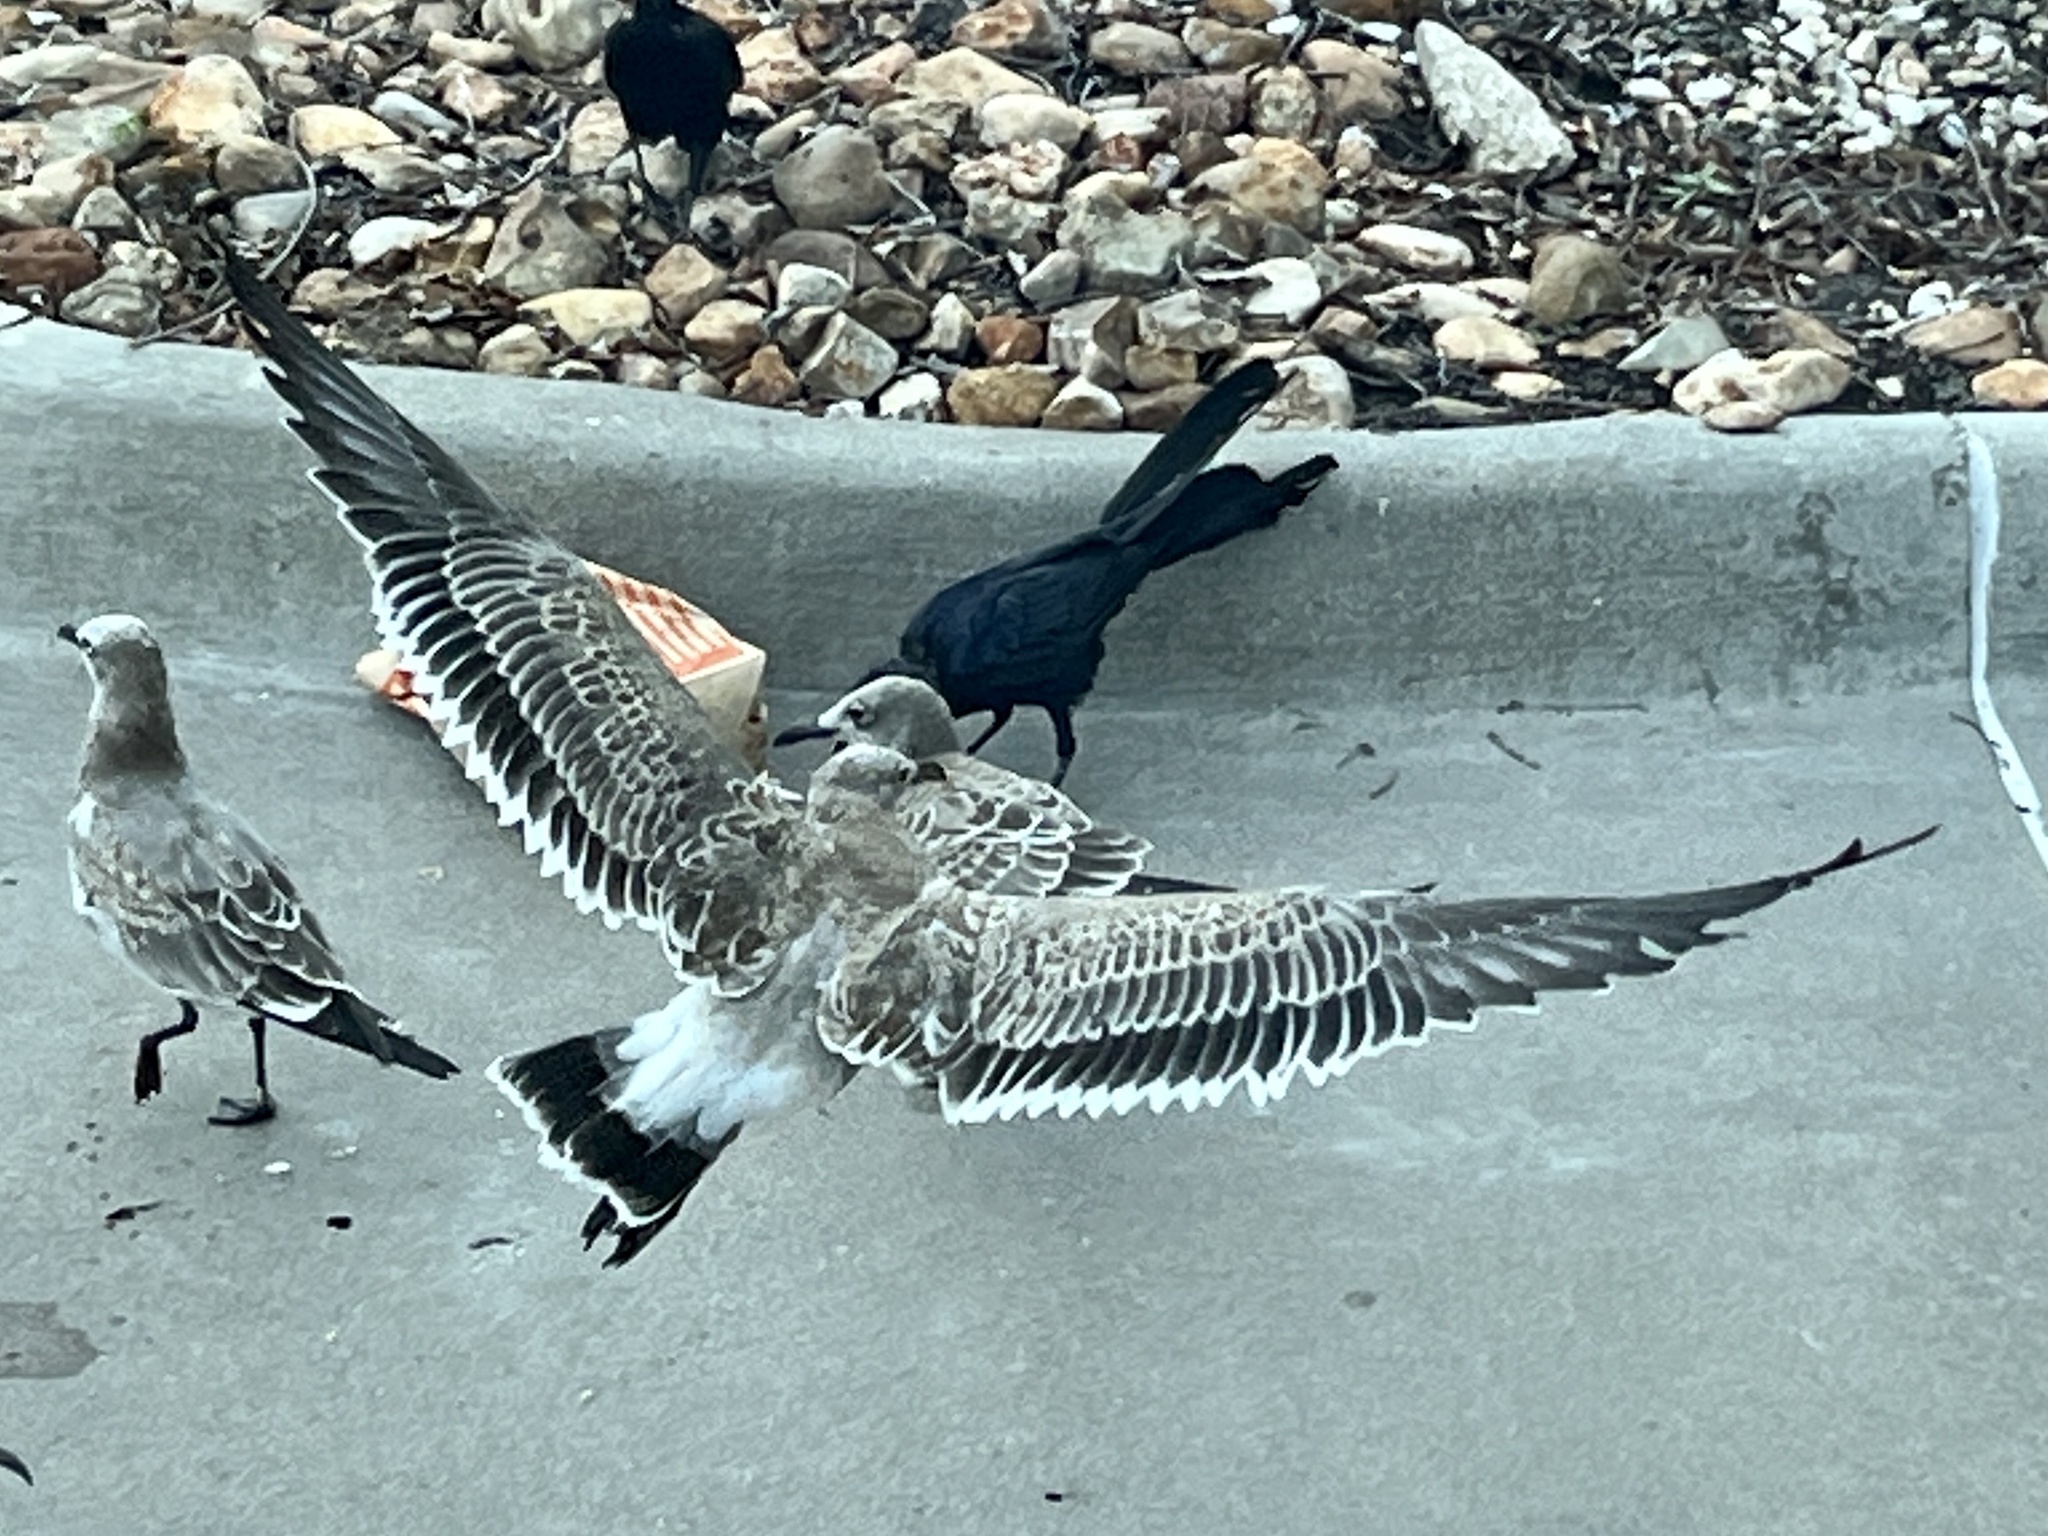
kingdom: Animalia
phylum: Chordata
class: Aves
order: Charadriiformes
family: Laridae
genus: Leucophaeus
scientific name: Leucophaeus atricilla
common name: Laughing gull
